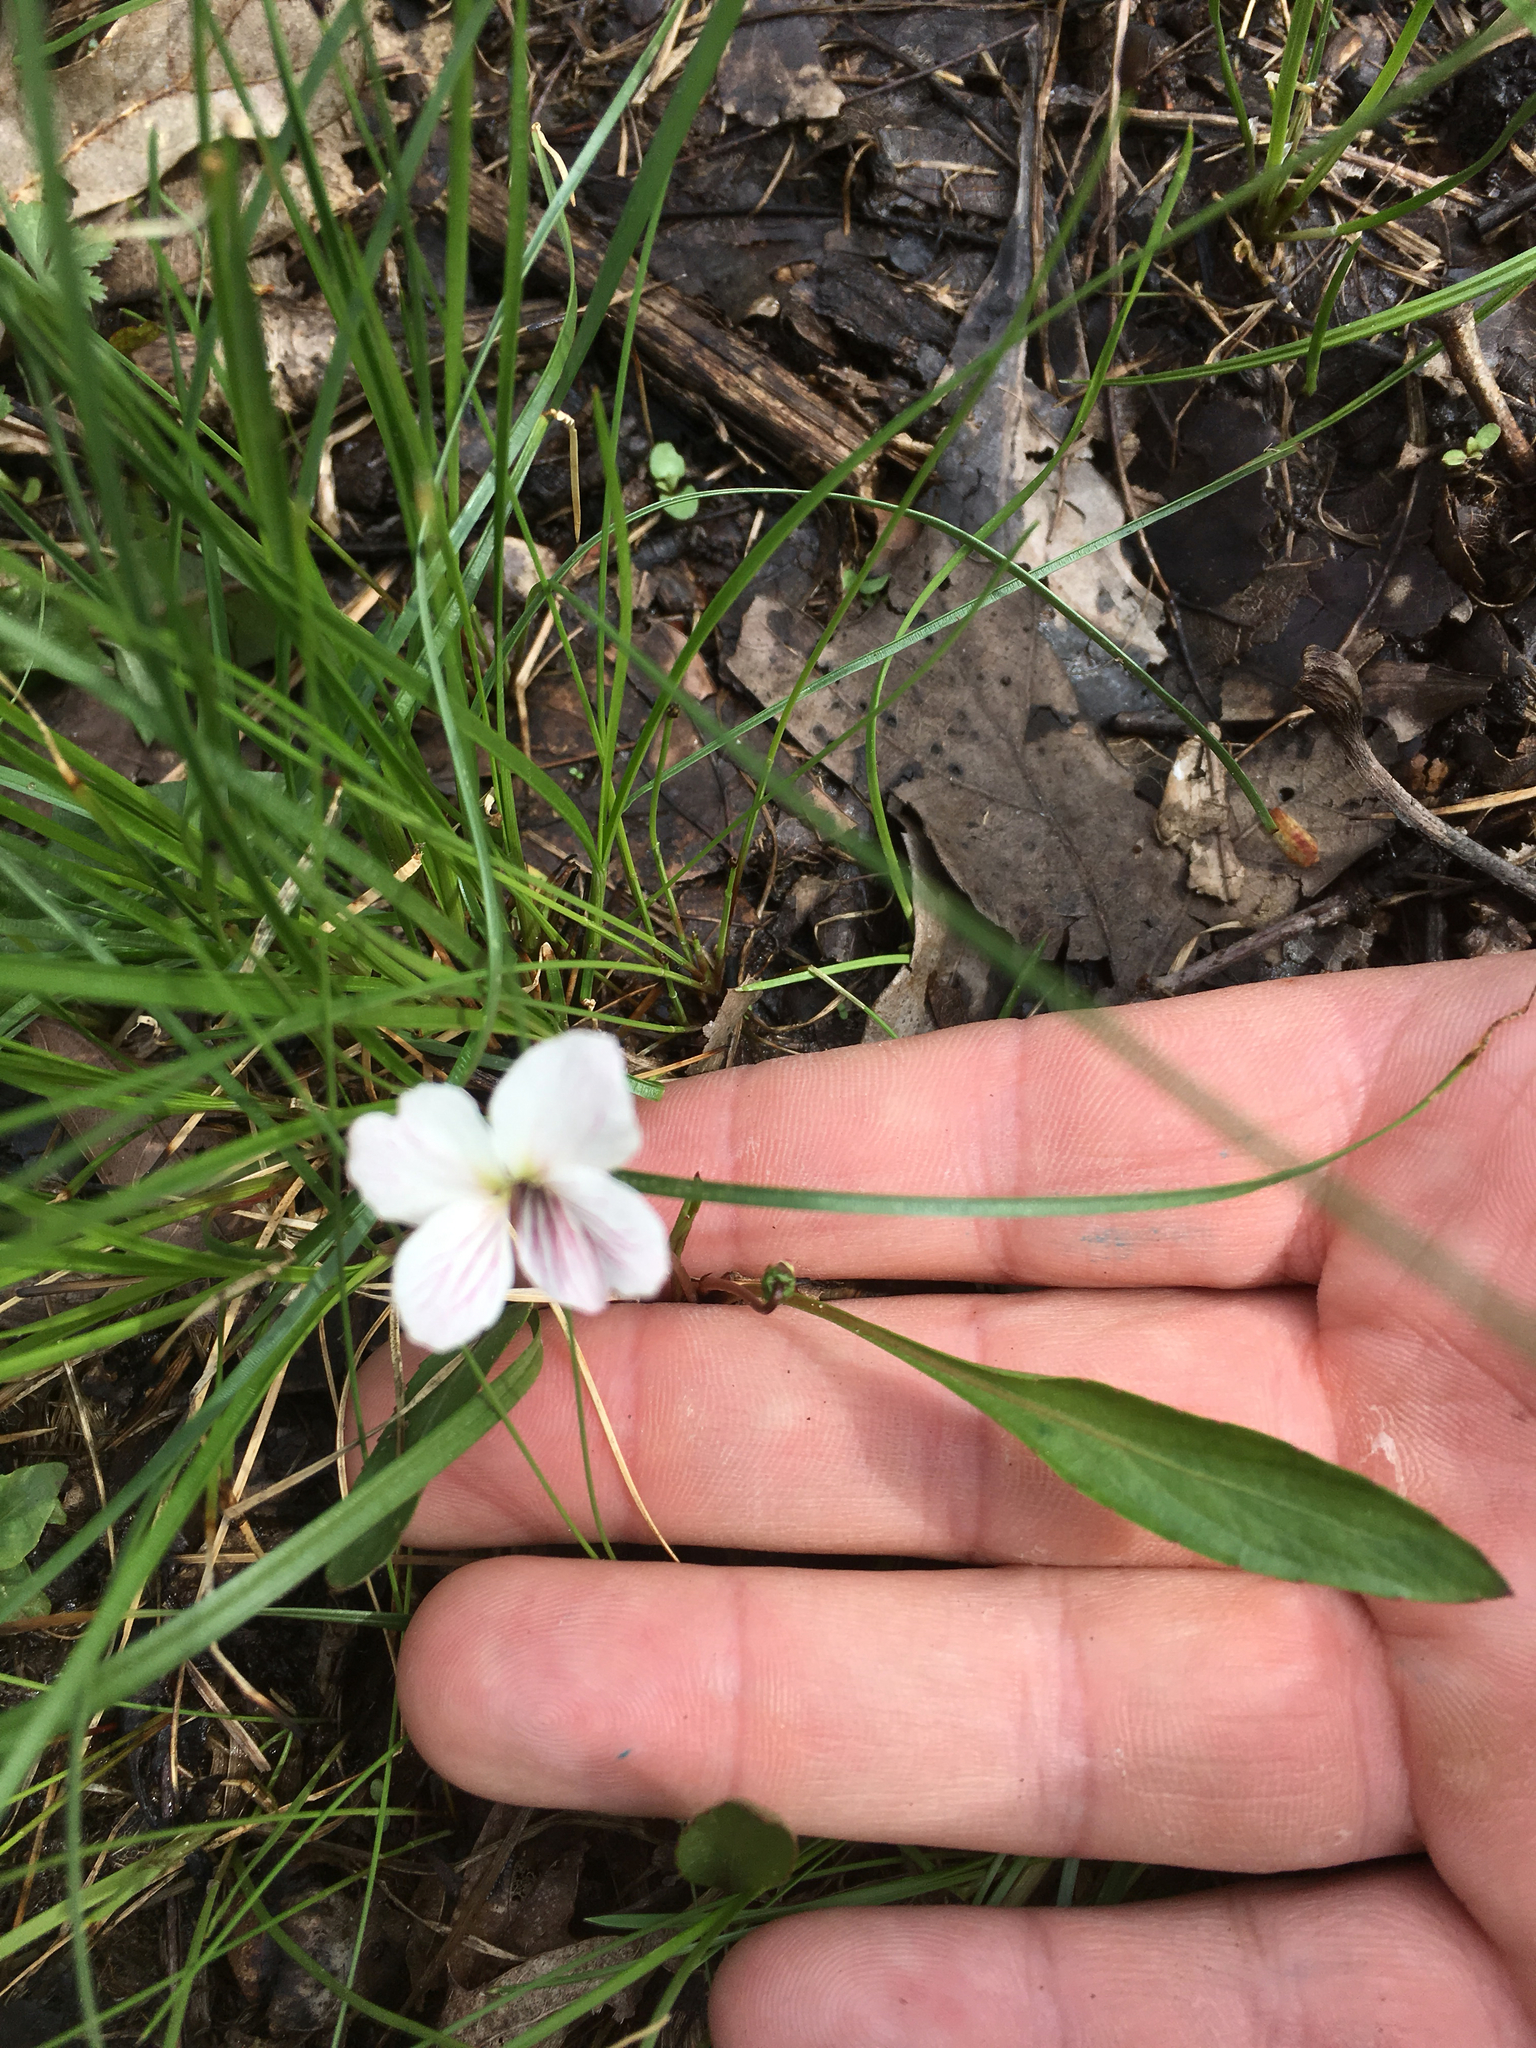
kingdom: Plantae
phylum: Tracheophyta
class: Magnoliopsida
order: Malpighiales
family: Violaceae
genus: Viola
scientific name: Viola lanceolata
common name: Bog white violet
